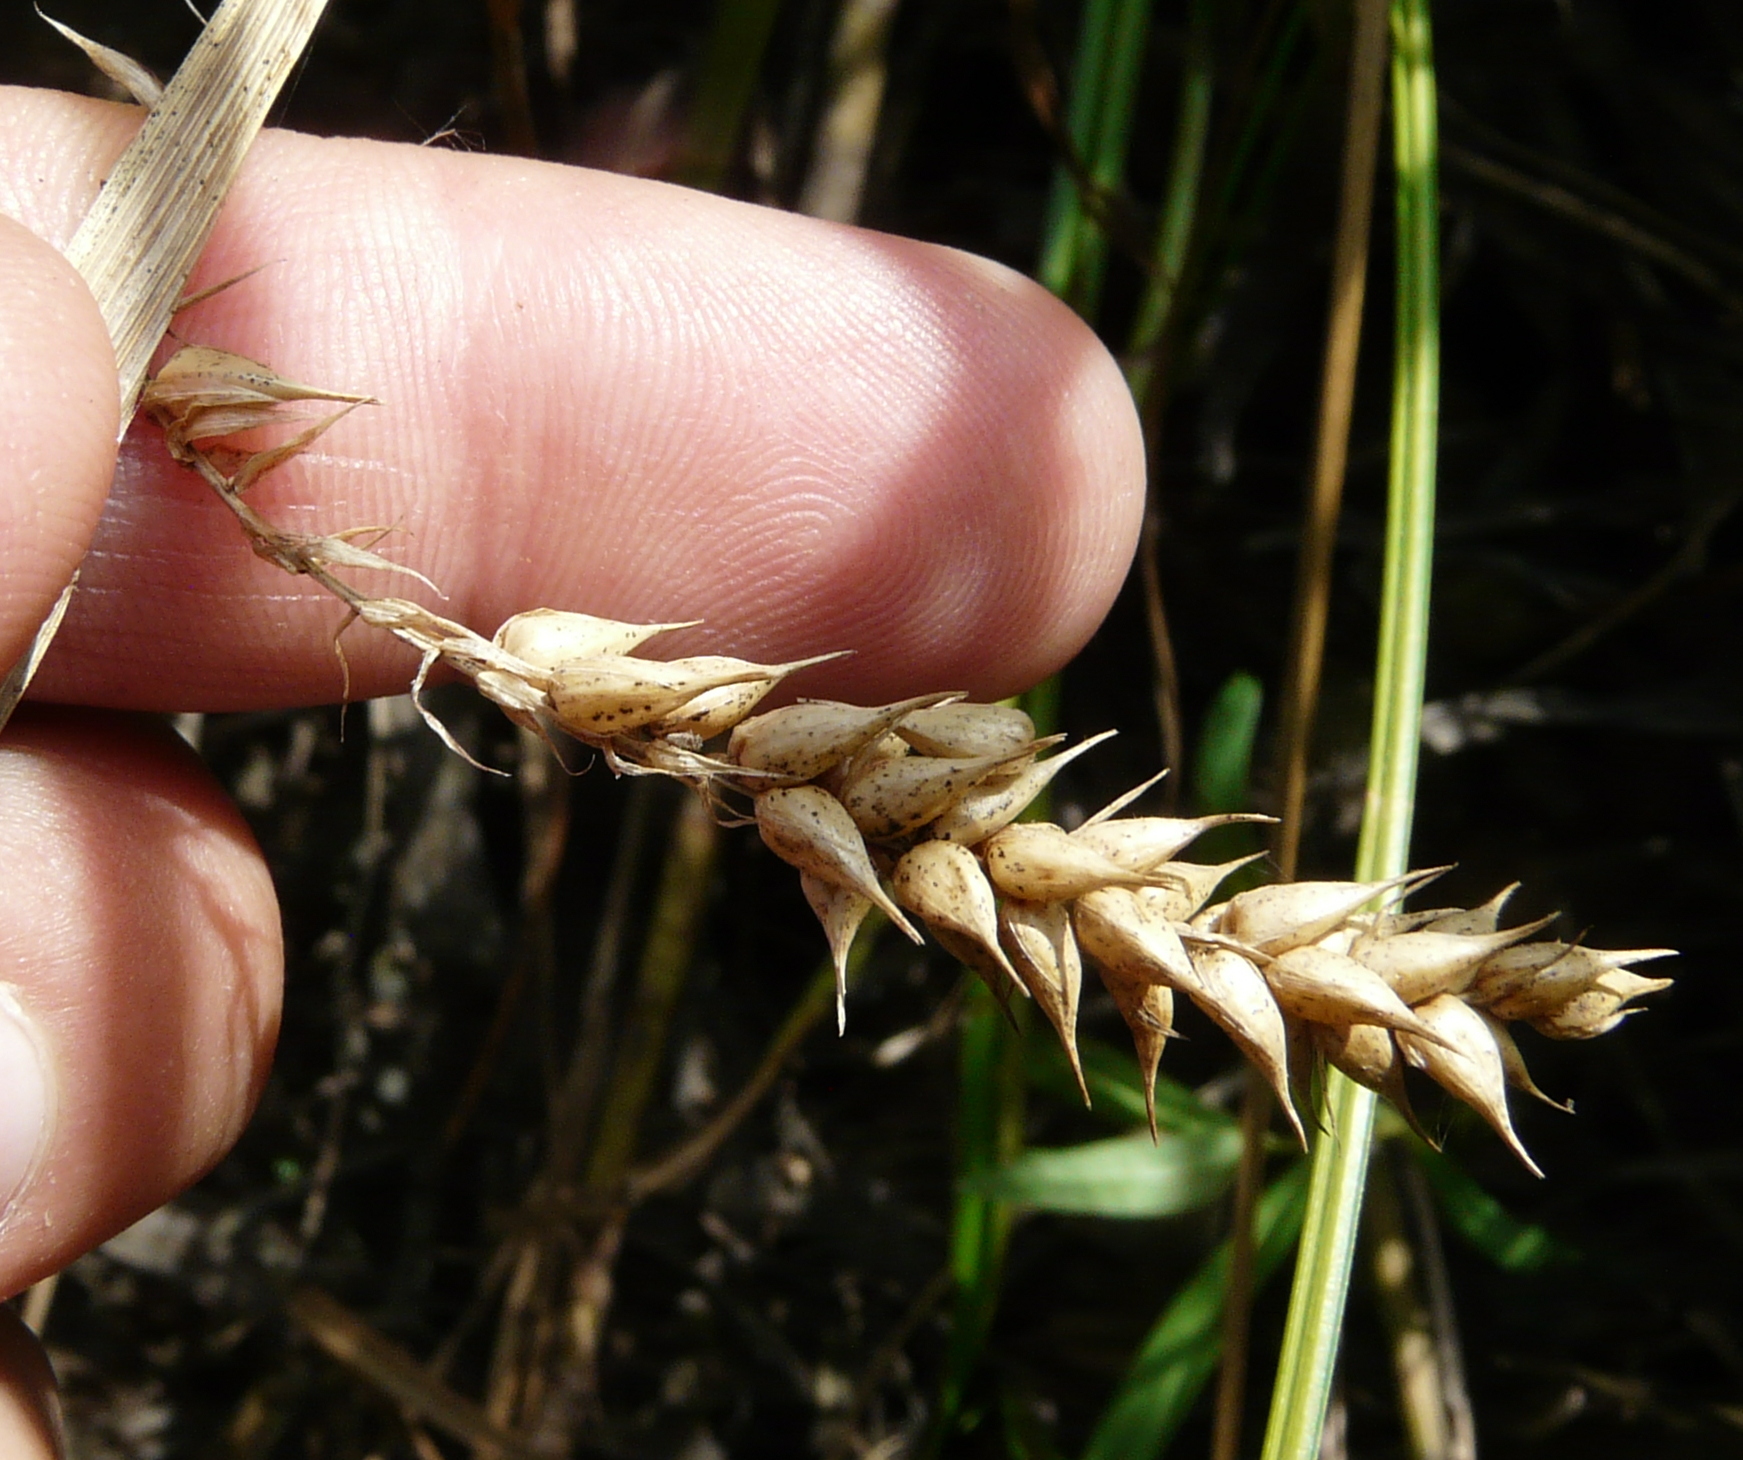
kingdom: Plantae
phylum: Tracheophyta
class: Liliopsida
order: Poales
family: Cyperaceae
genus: Carex
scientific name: Carex vesicaria
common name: Bladder-sedge
